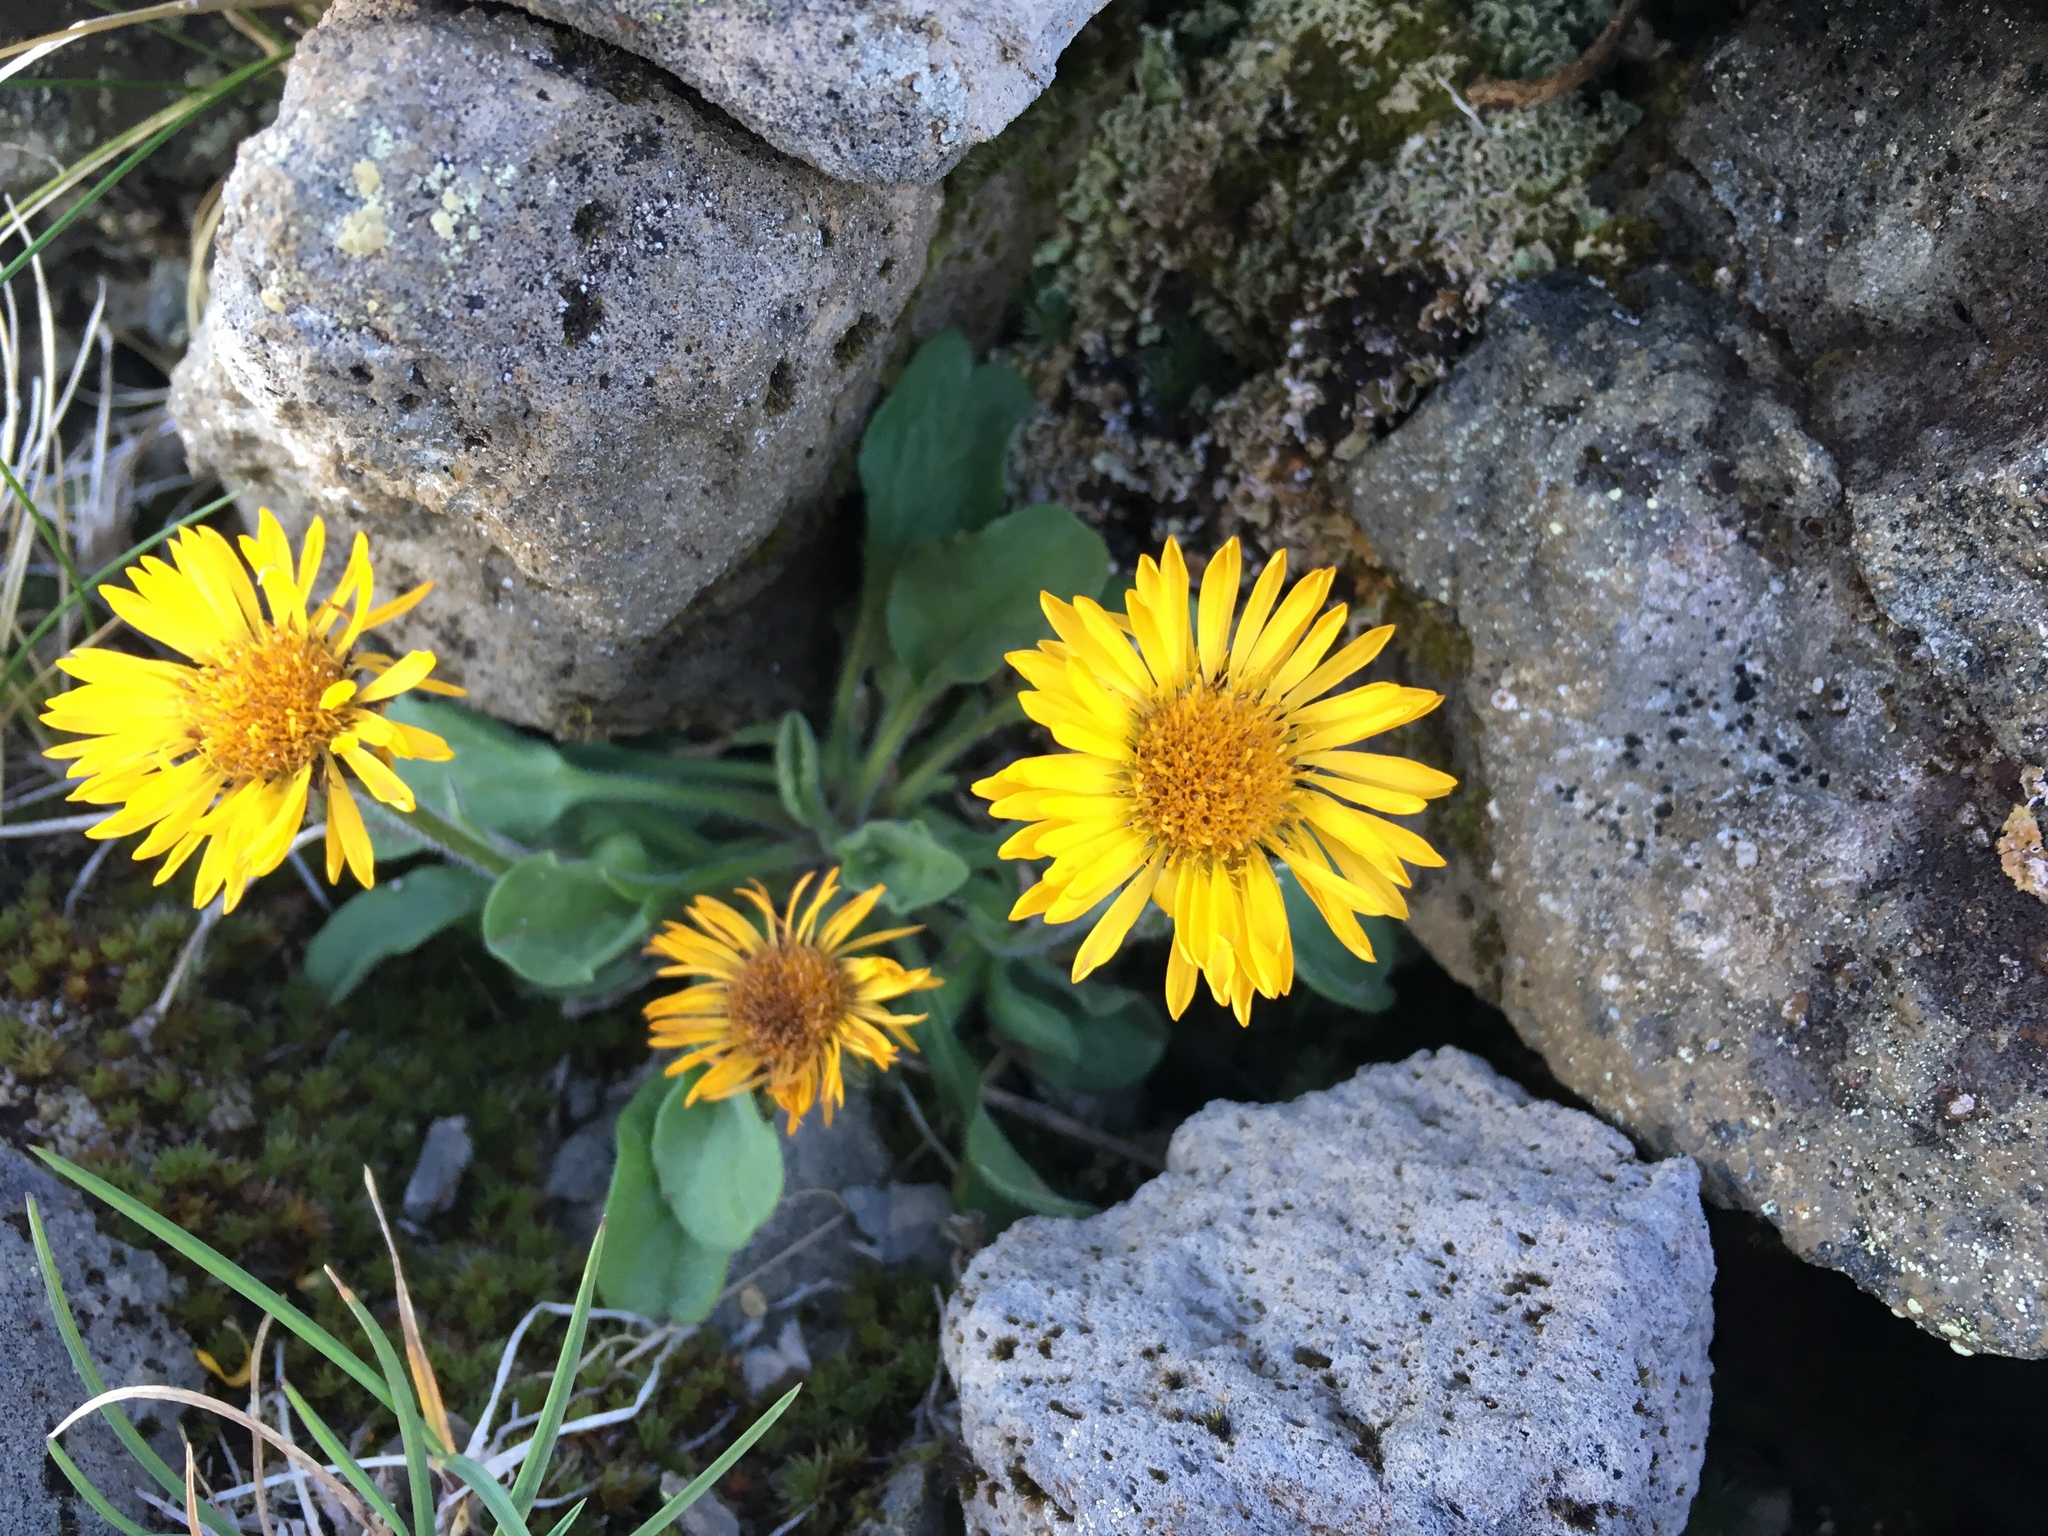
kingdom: Plantae
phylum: Tracheophyta
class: Magnoliopsida
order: Asterales
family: Asteraceae
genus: Erigeron
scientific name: Erigeron aureus
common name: Alpine yellow fleabane
